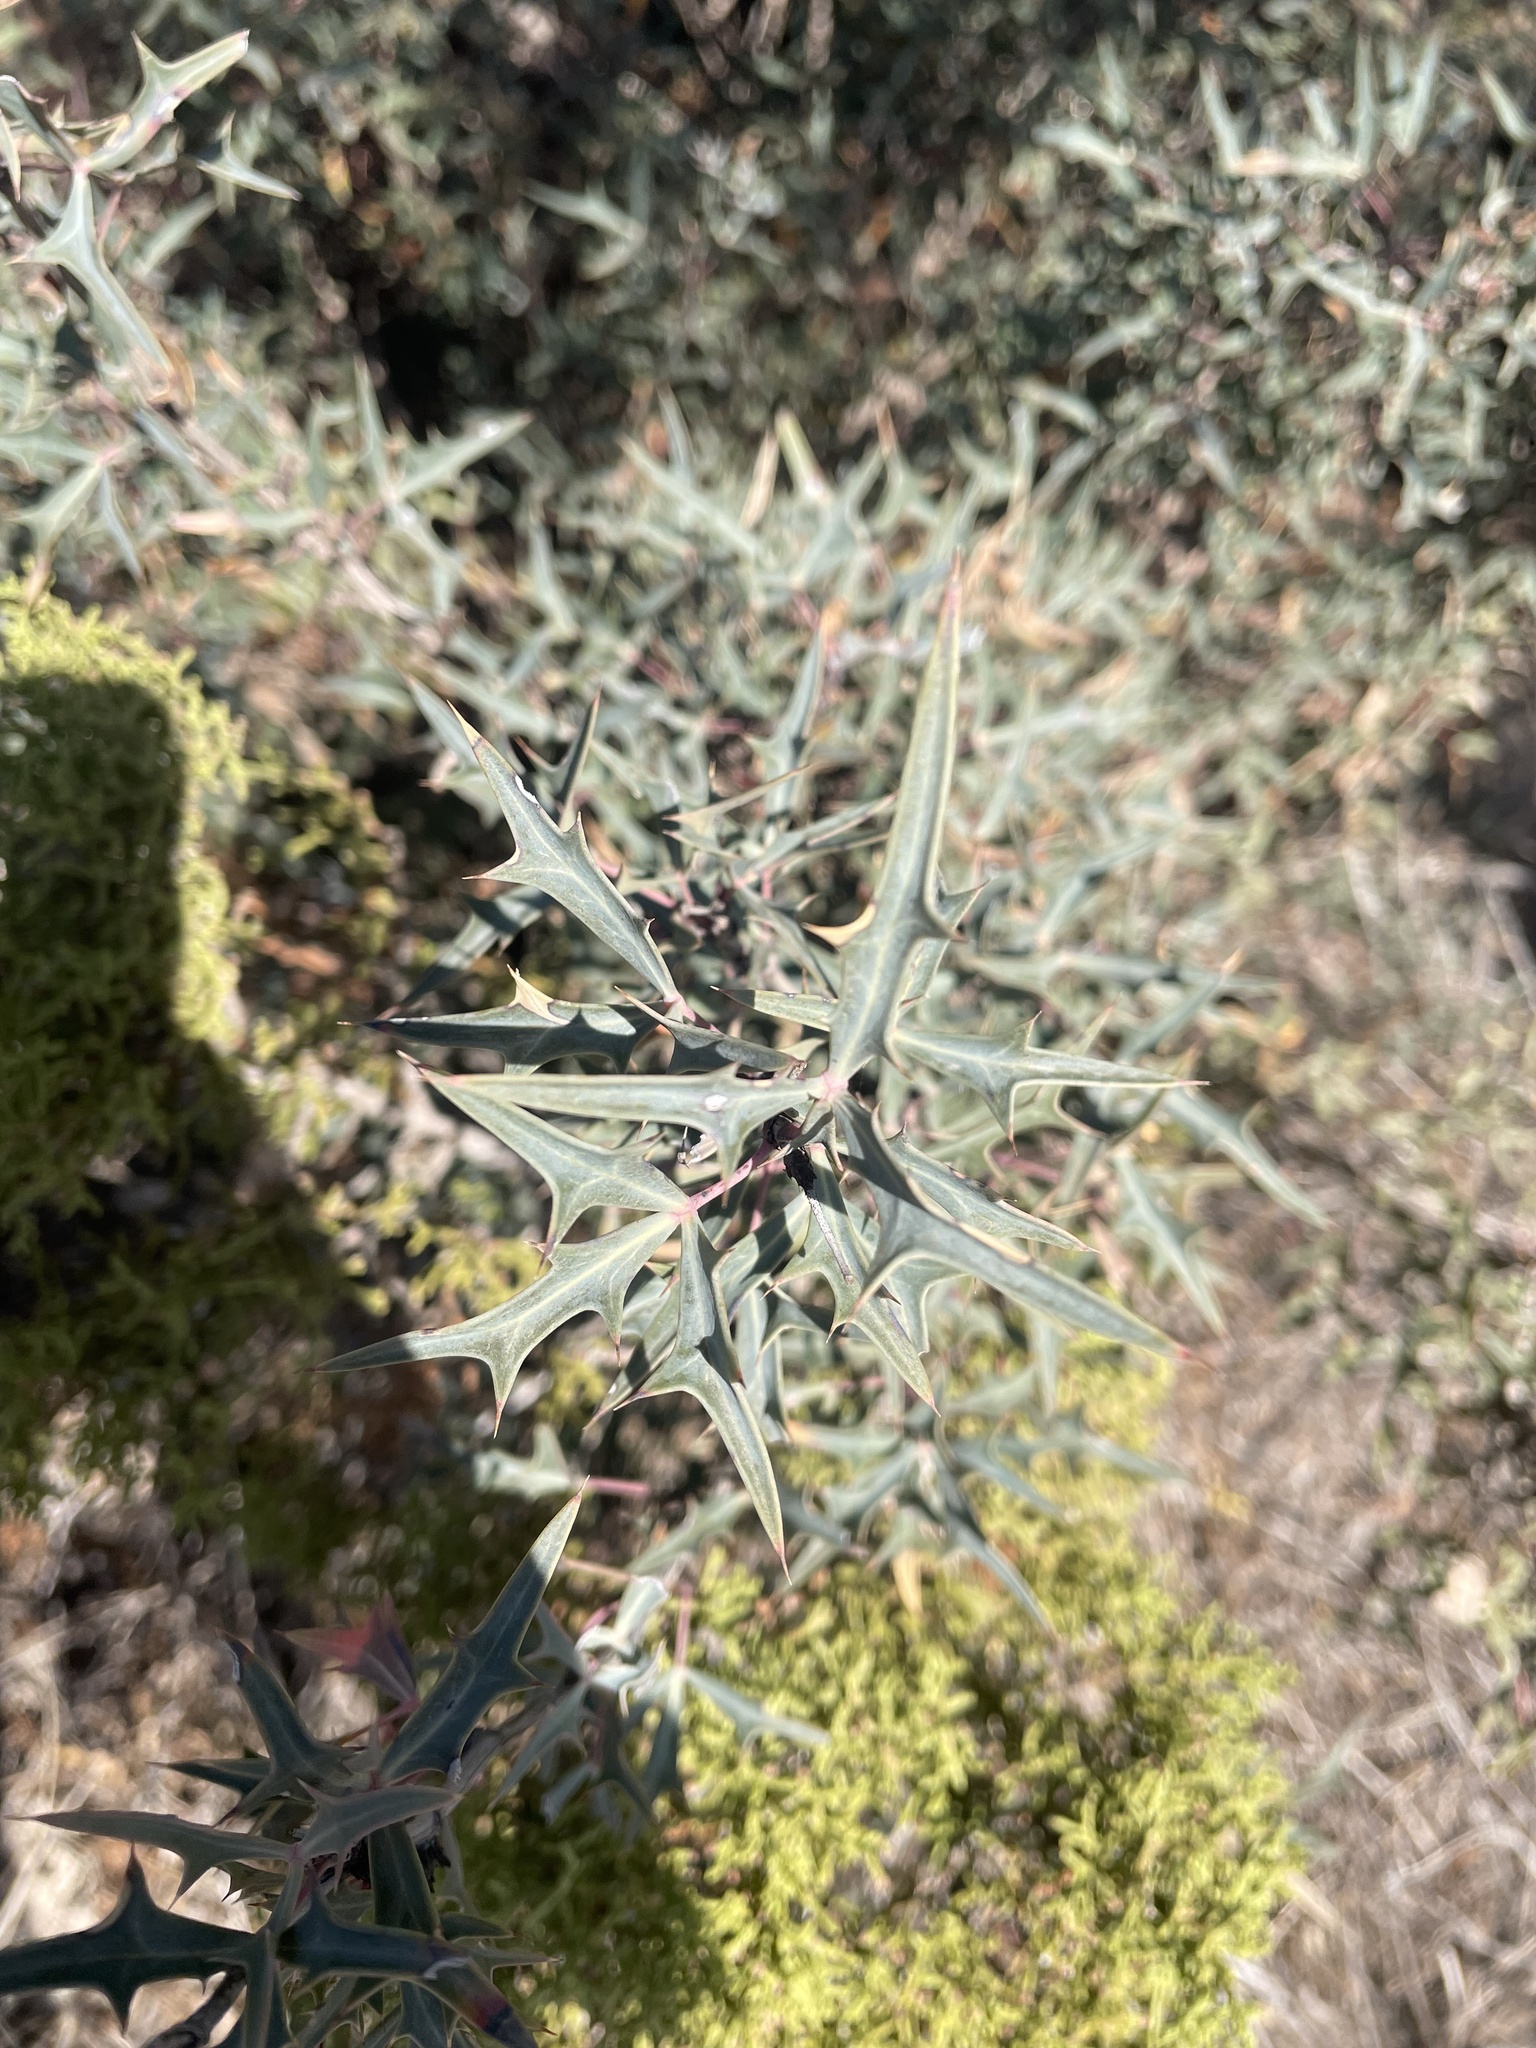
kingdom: Plantae
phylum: Tracheophyta
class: Magnoliopsida
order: Ranunculales
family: Berberidaceae
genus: Alloberberis
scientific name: Alloberberis trifoliolata
